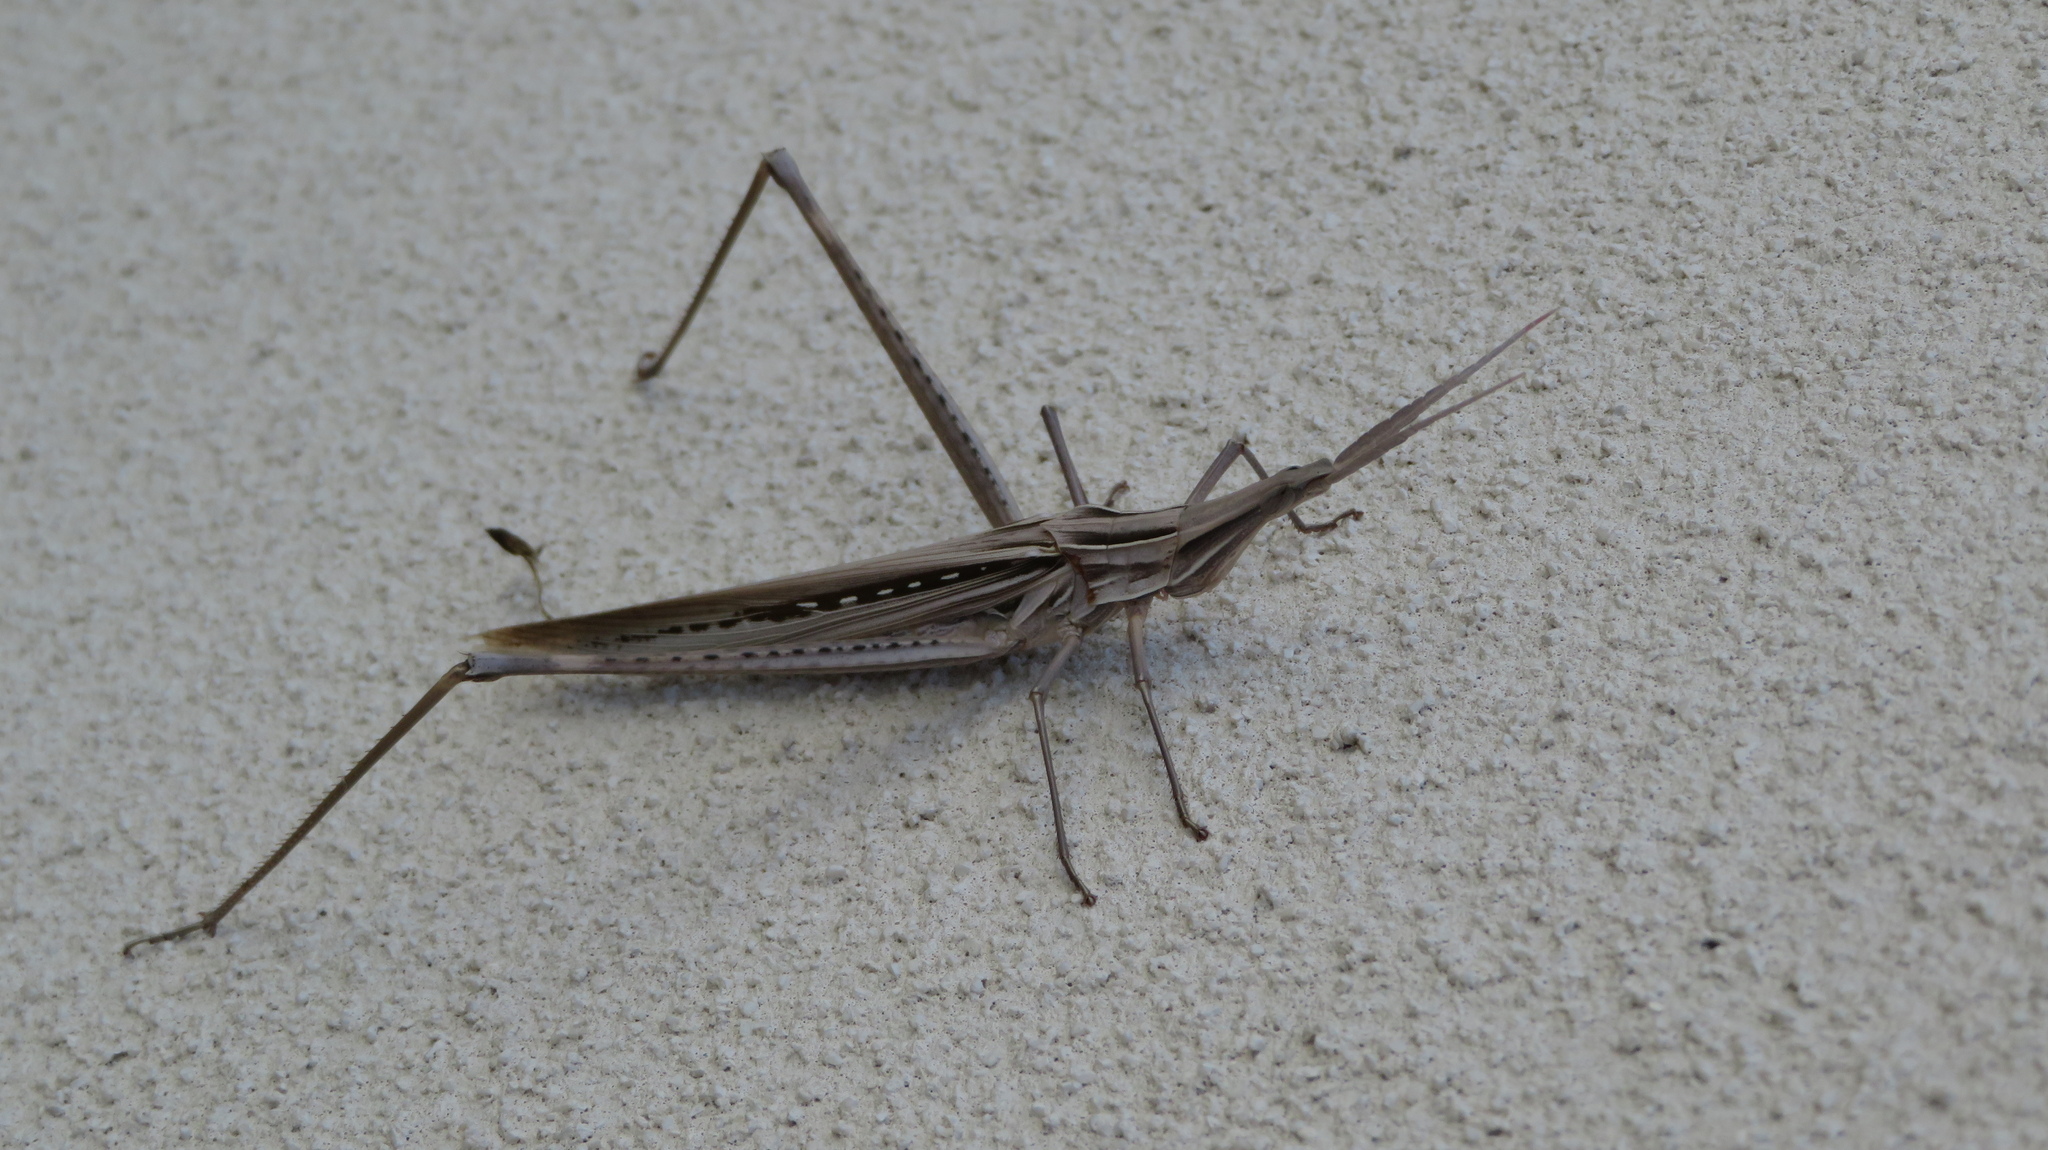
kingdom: Animalia
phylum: Arthropoda
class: Insecta
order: Orthoptera
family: Acrididae
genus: Acrida
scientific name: Acrida cinerea
